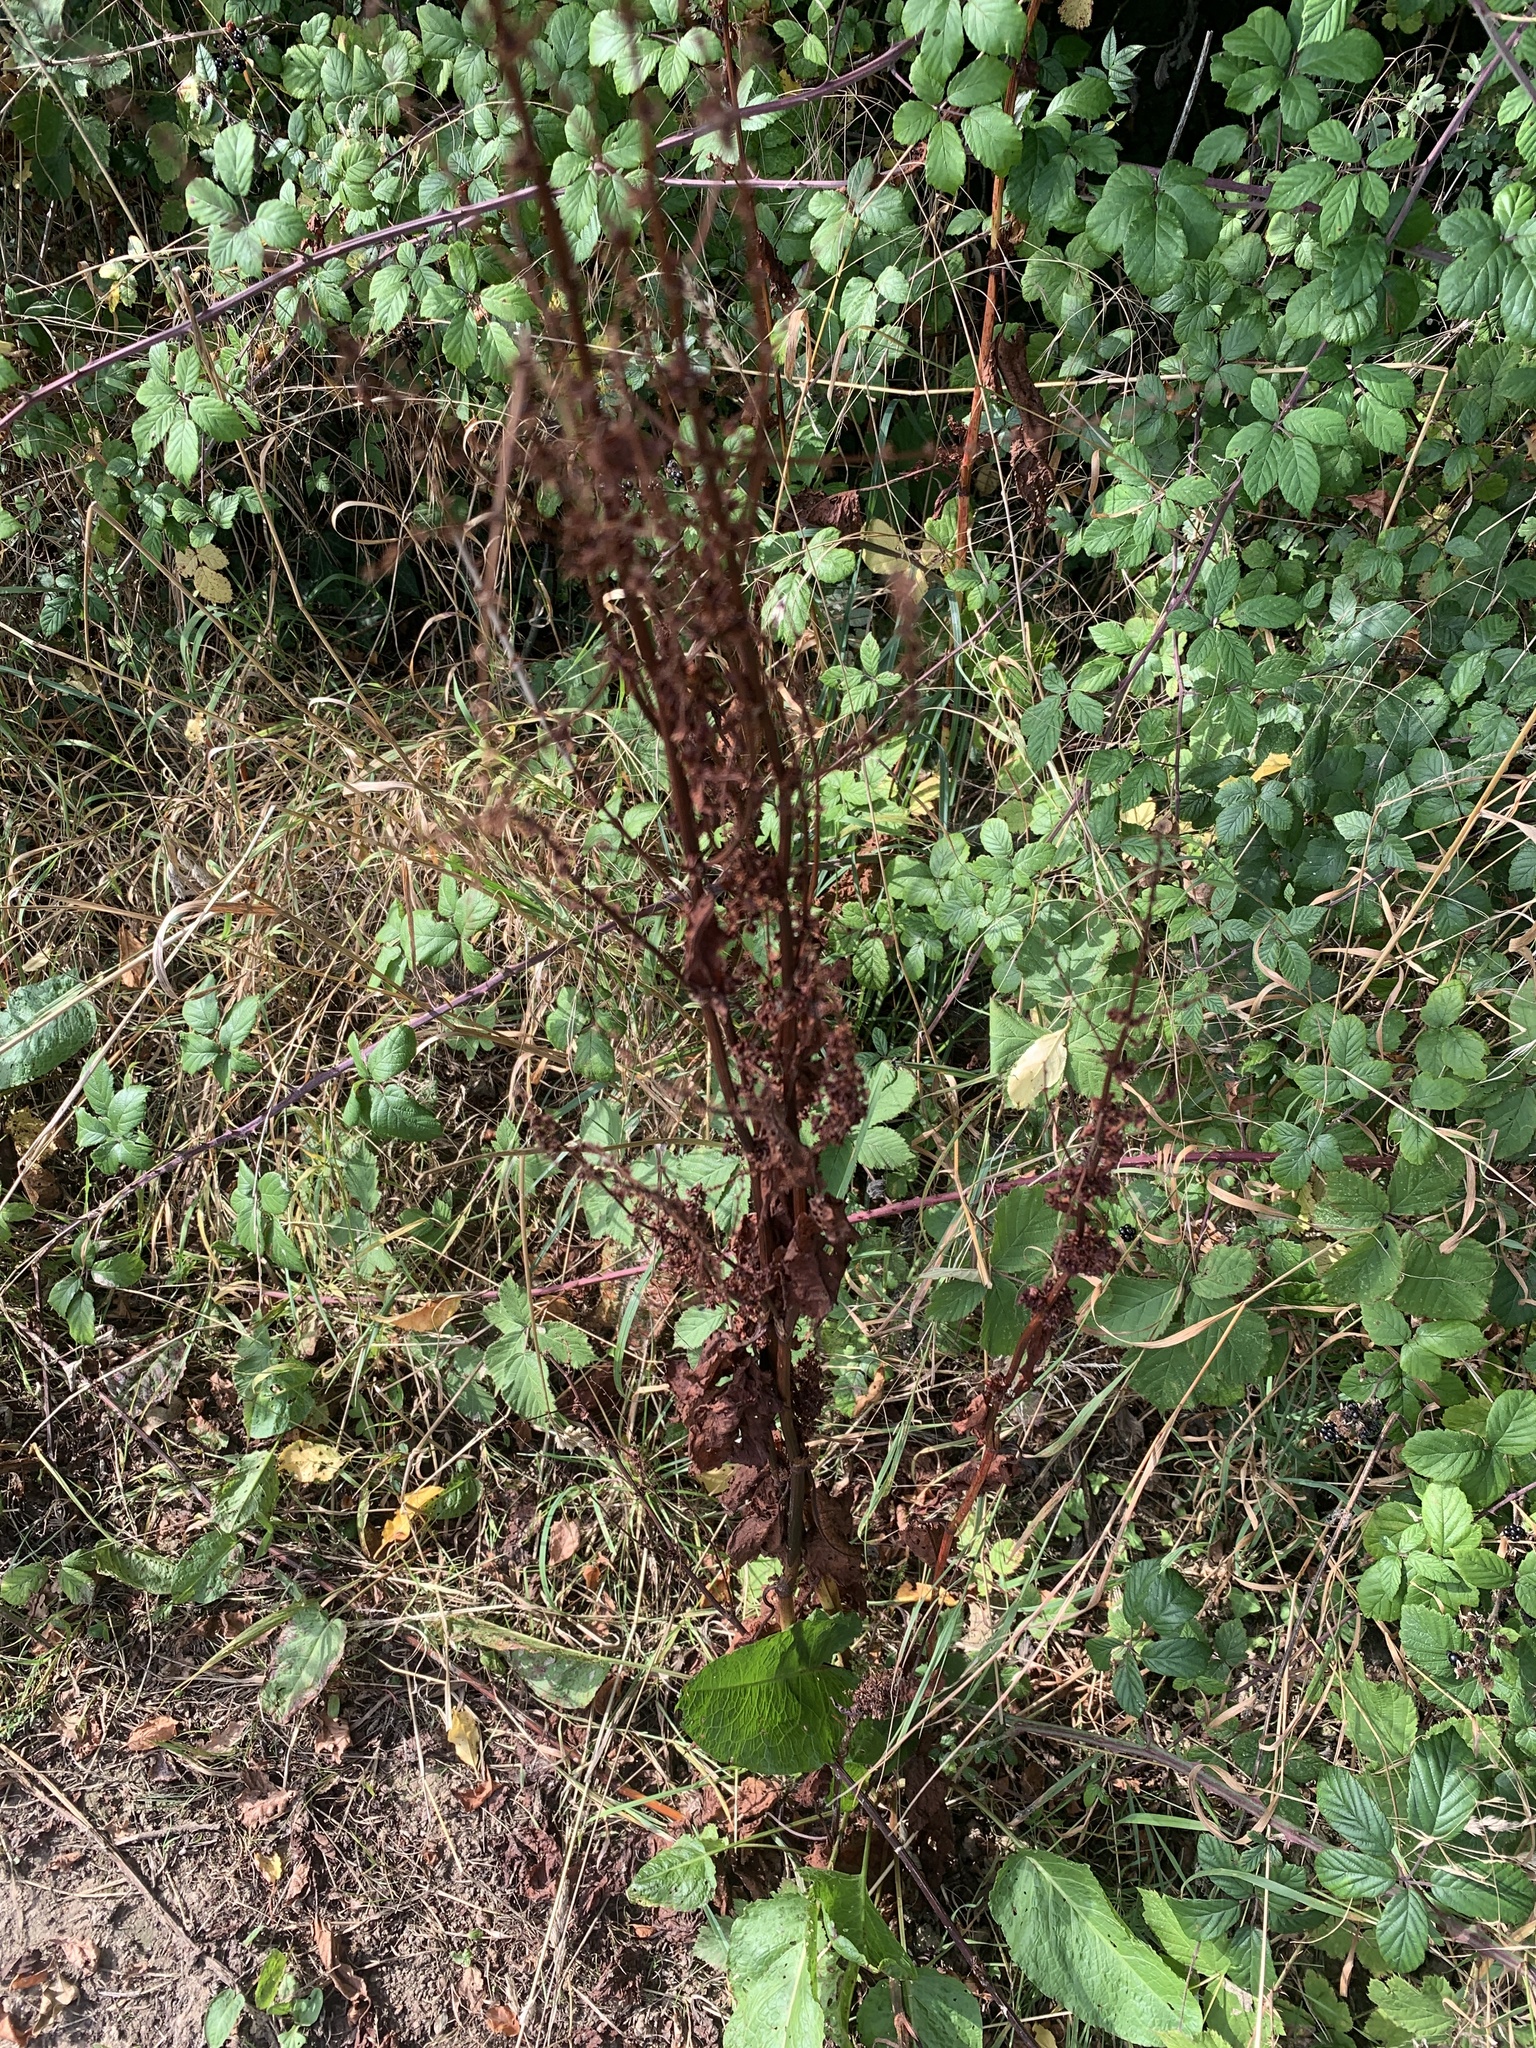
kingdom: Plantae
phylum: Tracheophyta
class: Magnoliopsida
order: Caryophyllales
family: Polygonaceae
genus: Rumex
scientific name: Rumex crispus
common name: Curled dock
